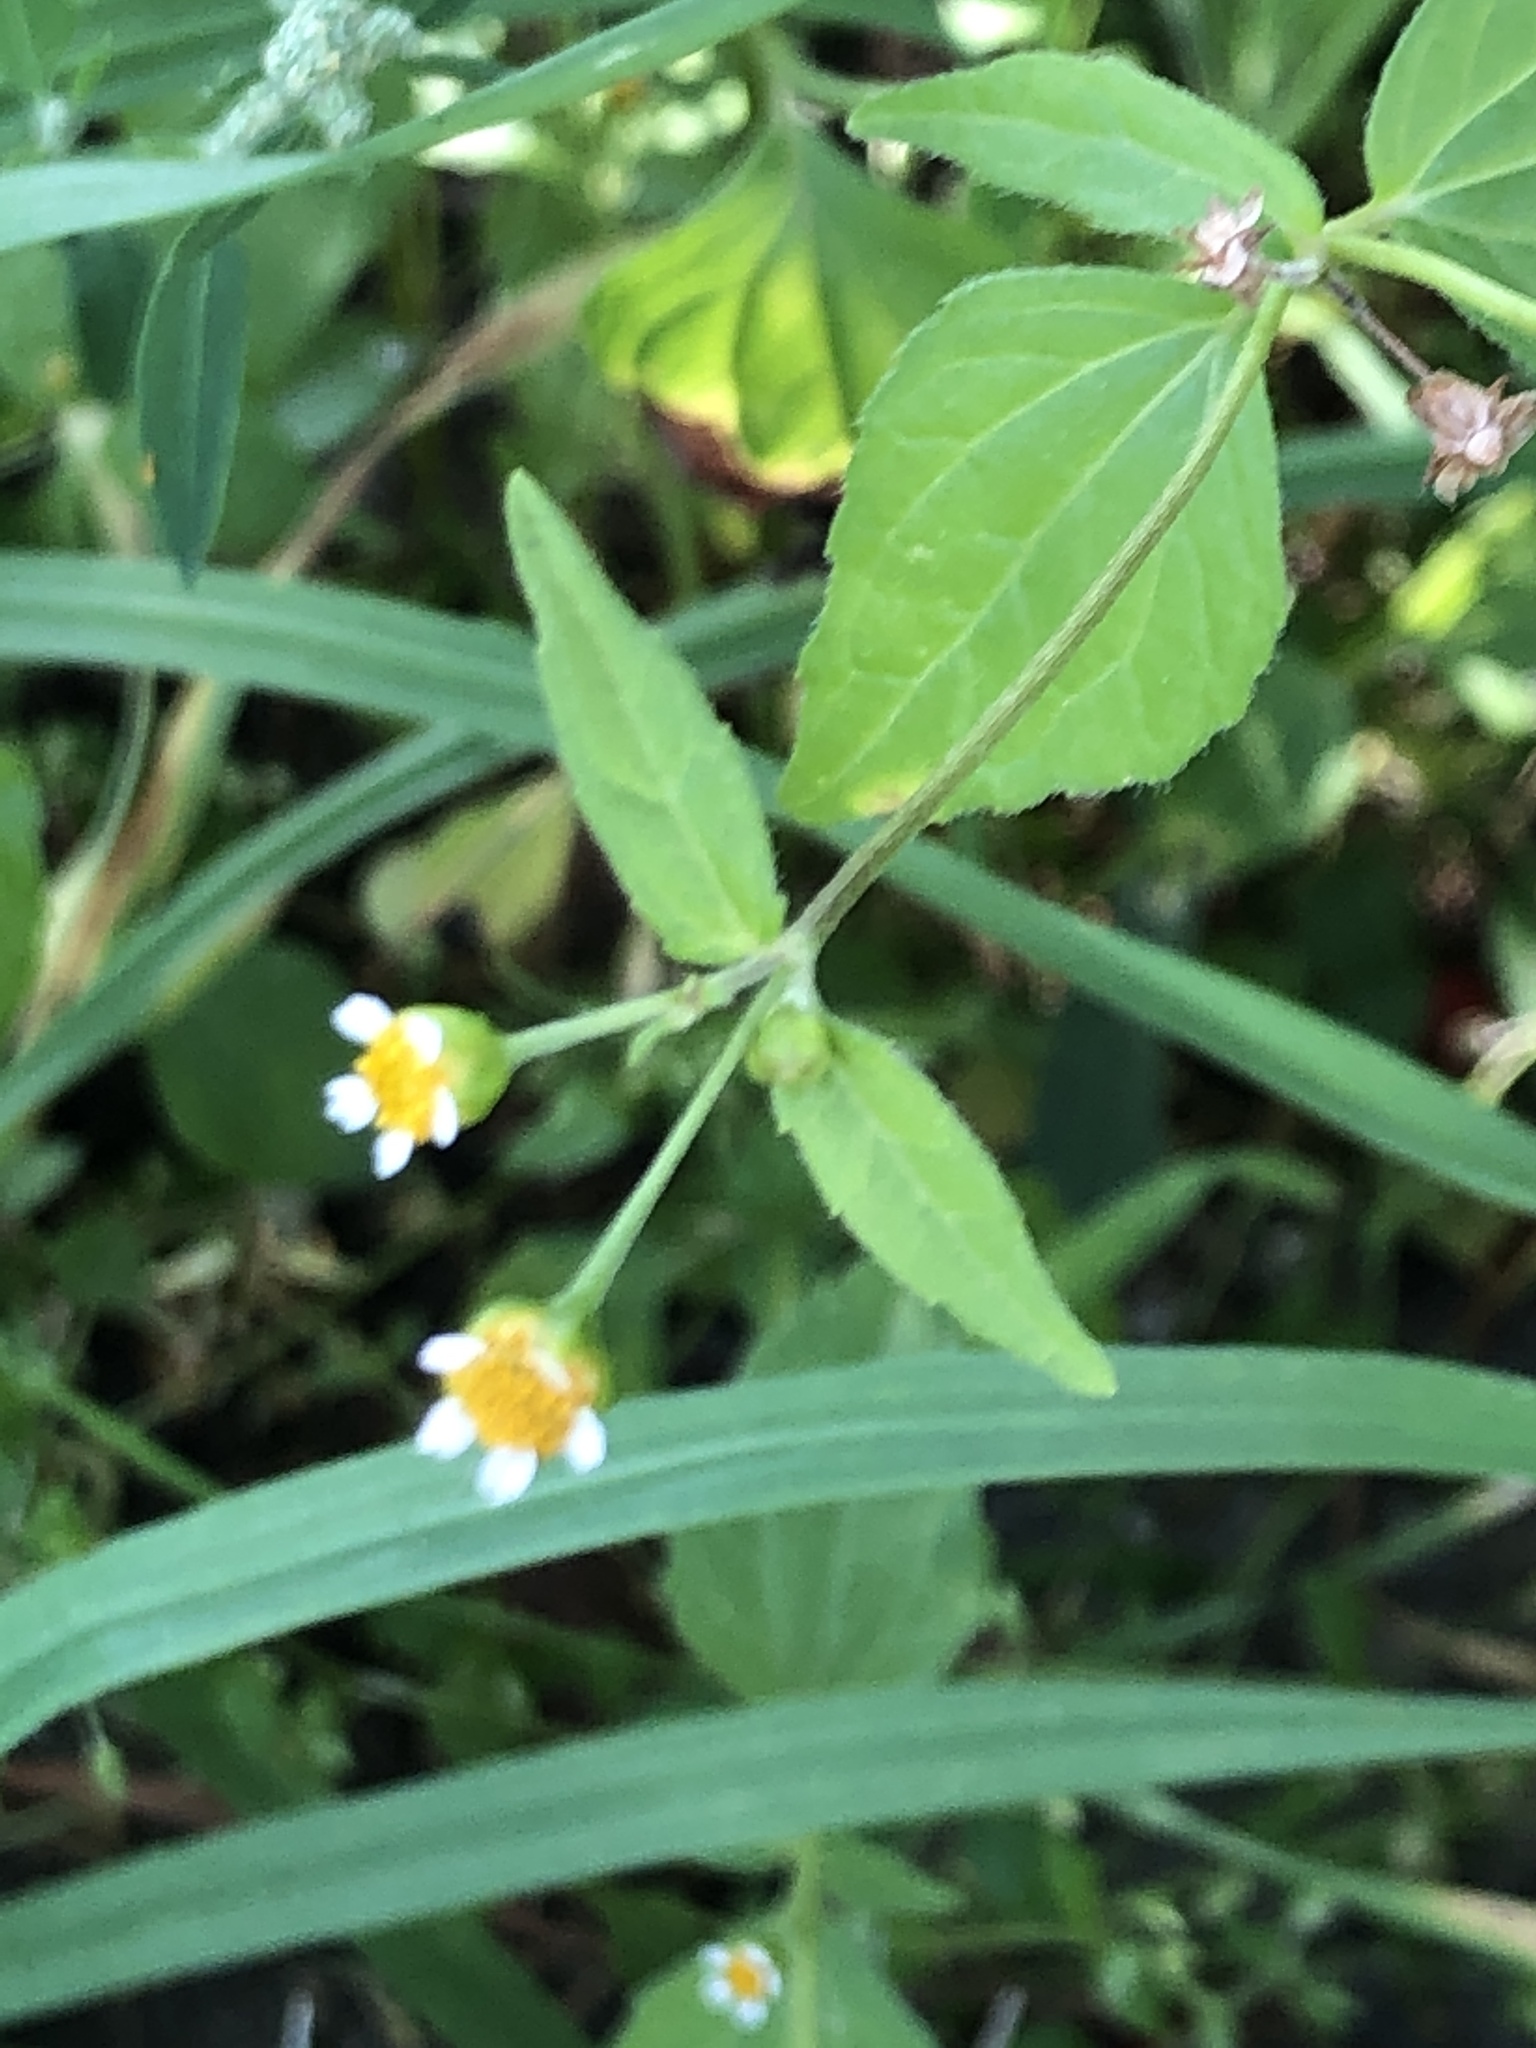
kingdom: Plantae
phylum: Tracheophyta
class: Magnoliopsida
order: Asterales
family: Asteraceae
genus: Galinsoga
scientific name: Galinsoga parviflora
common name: Gallant soldier
